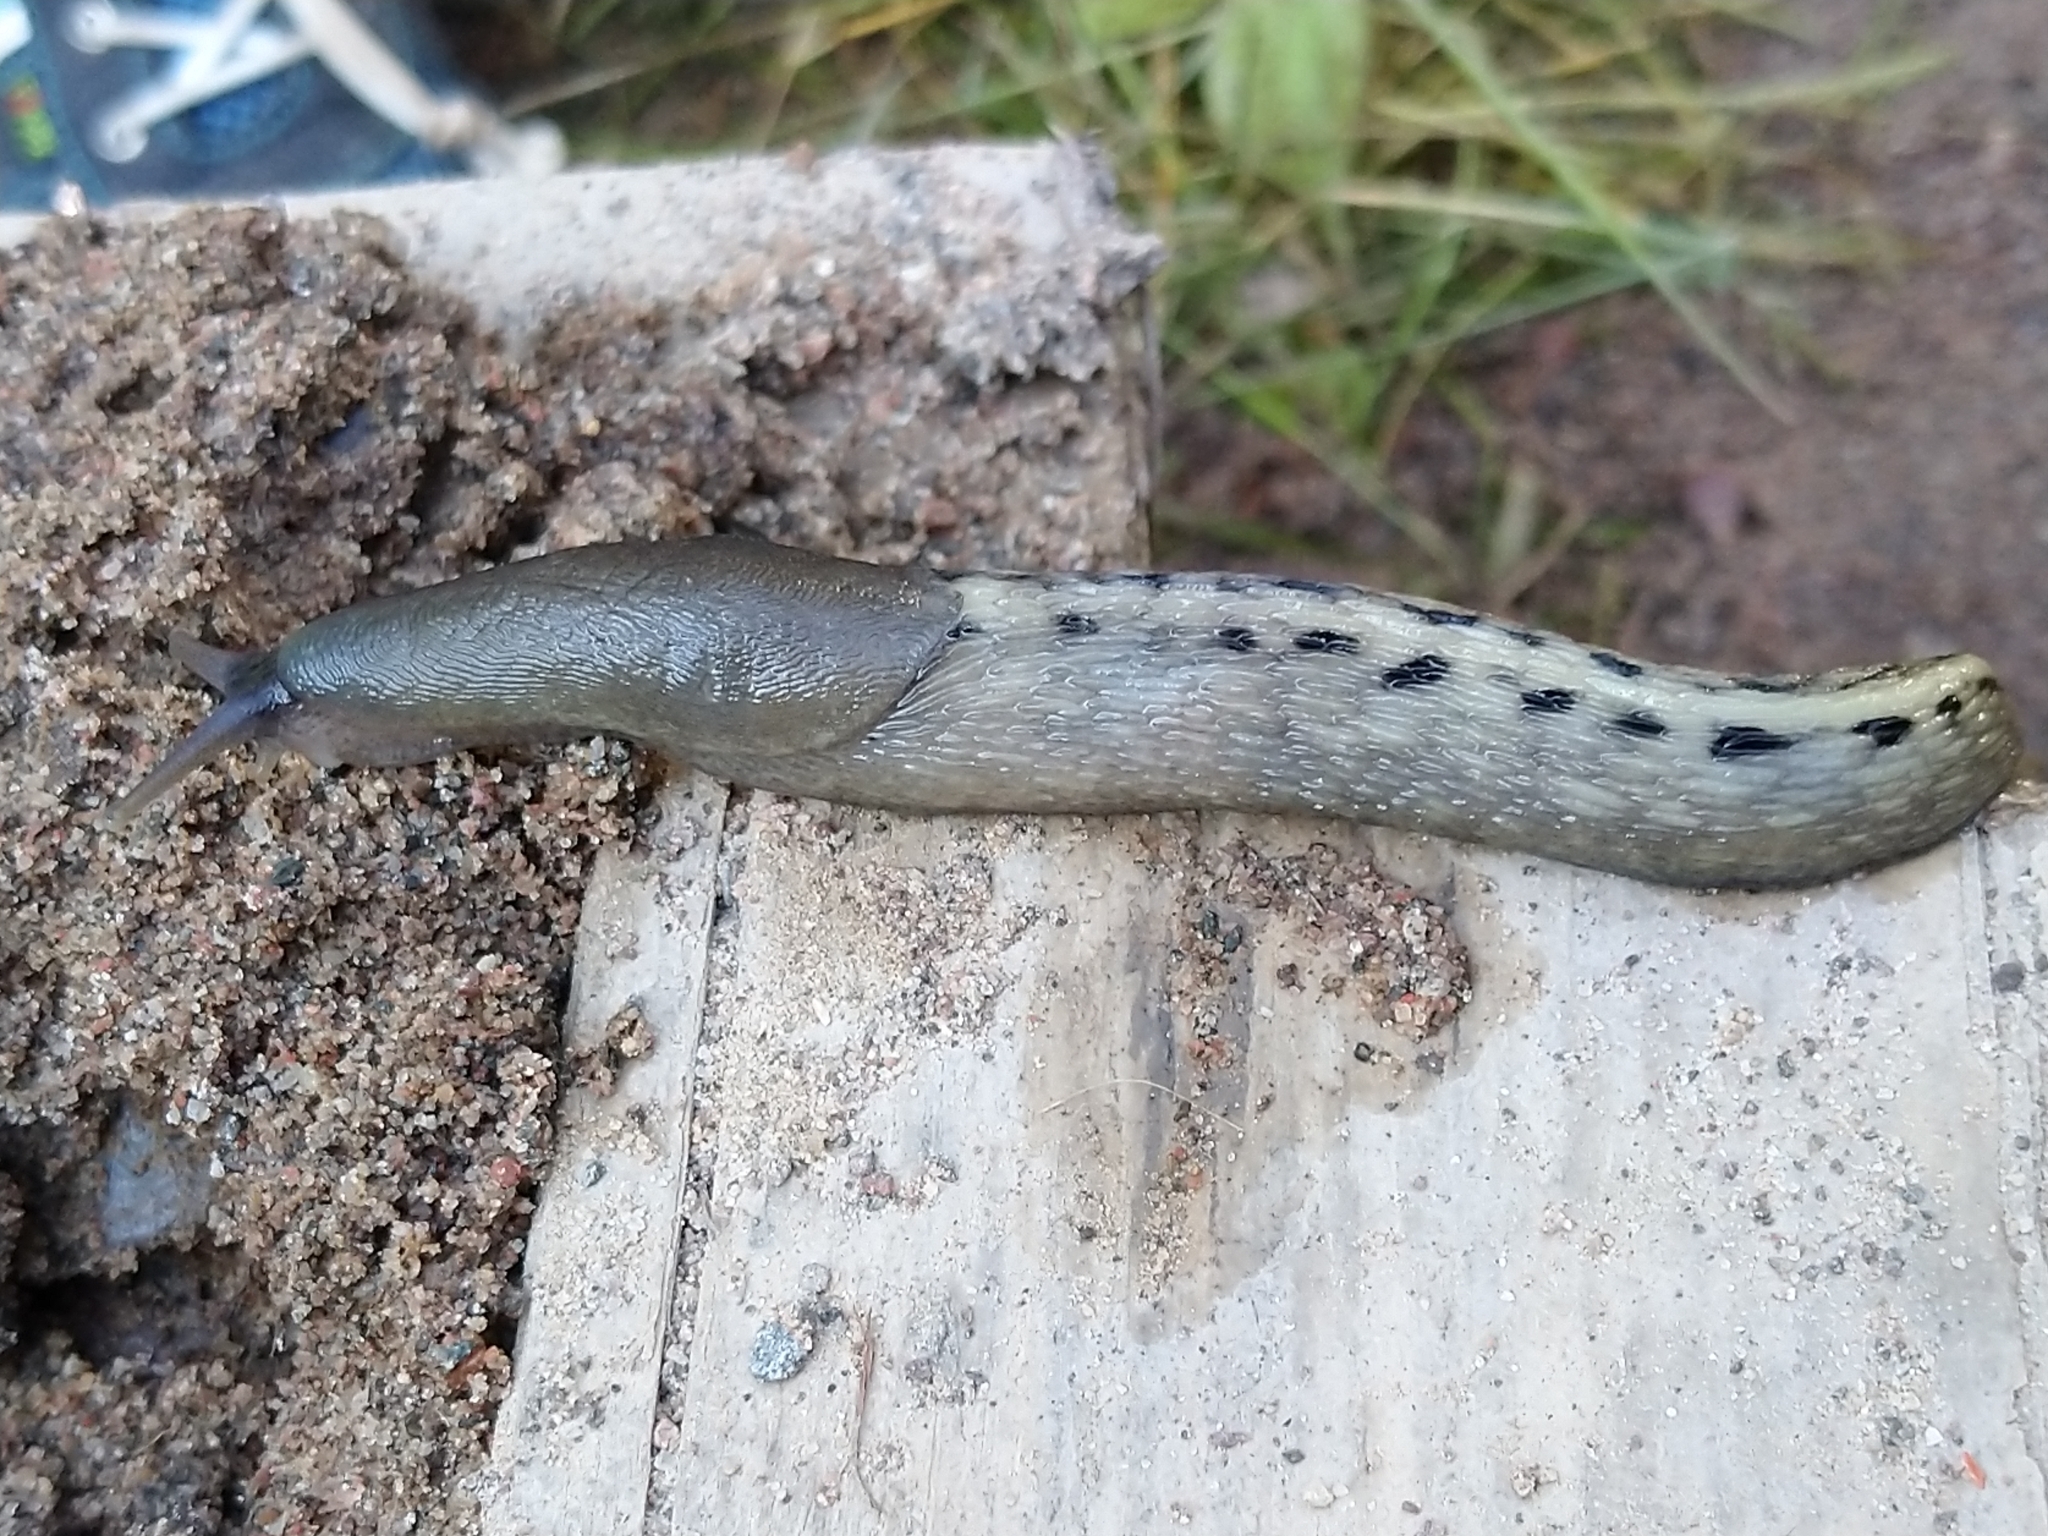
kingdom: Animalia
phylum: Mollusca
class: Gastropoda
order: Stylommatophora
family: Limacidae
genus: Limax
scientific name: Limax cinereoniger
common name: Ash-black slug
